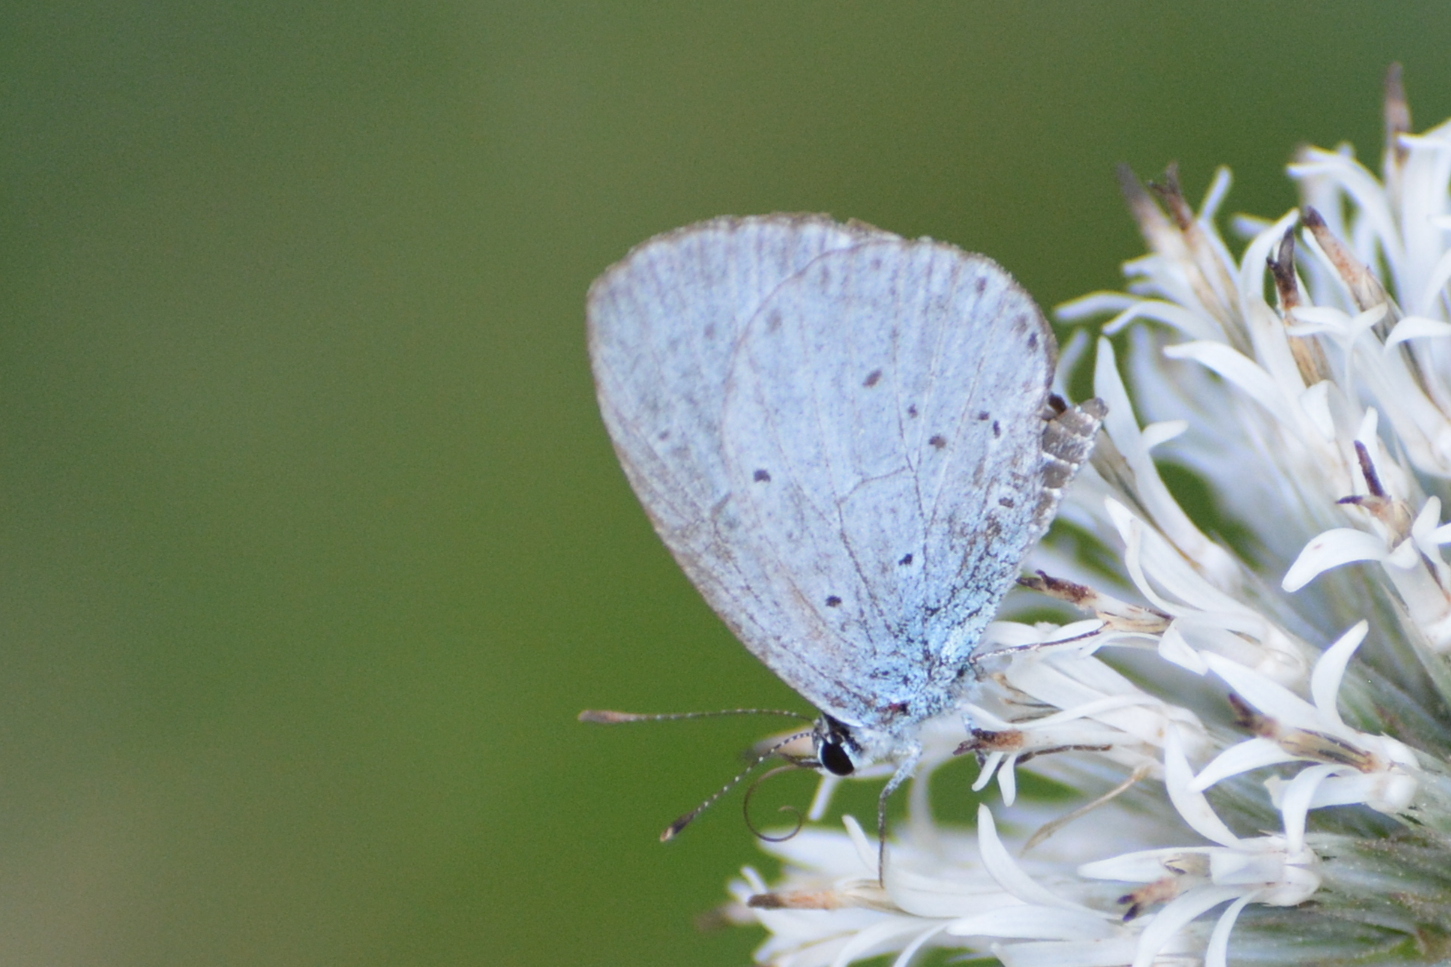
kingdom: Animalia
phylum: Arthropoda
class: Insecta
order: Lepidoptera
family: Lycaenidae
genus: Celastrina
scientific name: Celastrina argiolus
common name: Holly blue
